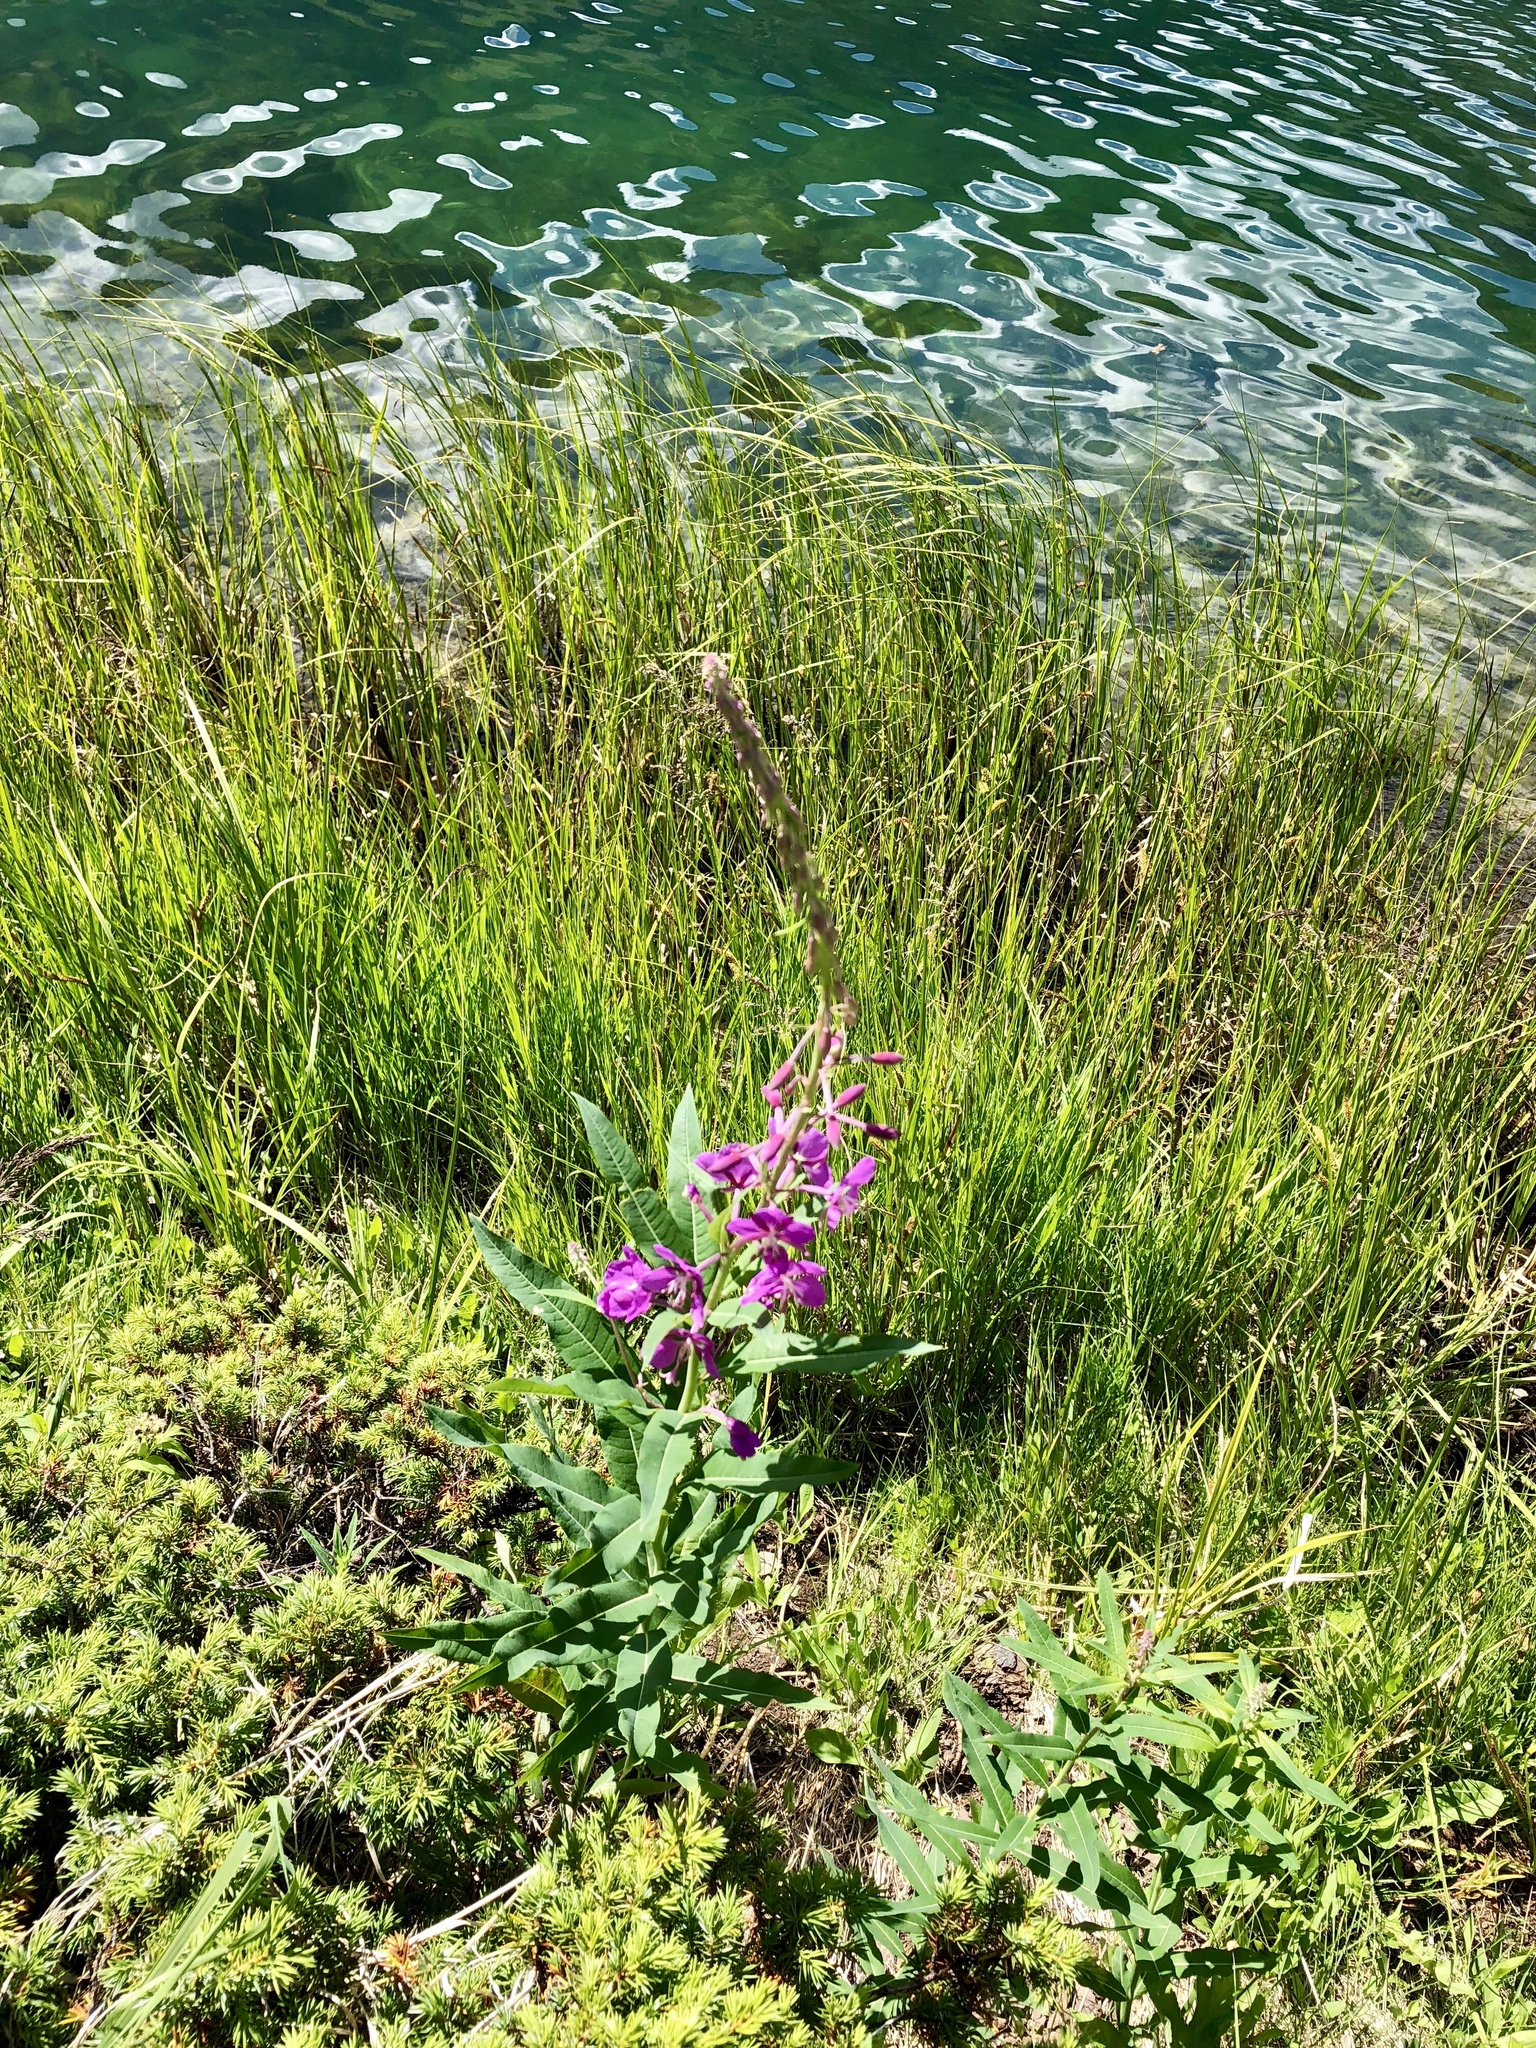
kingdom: Plantae
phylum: Tracheophyta
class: Magnoliopsida
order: Myrtales
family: Onagraceae
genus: Chamaenerion
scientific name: Chamaenerion angustifolium
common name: Fireweed
